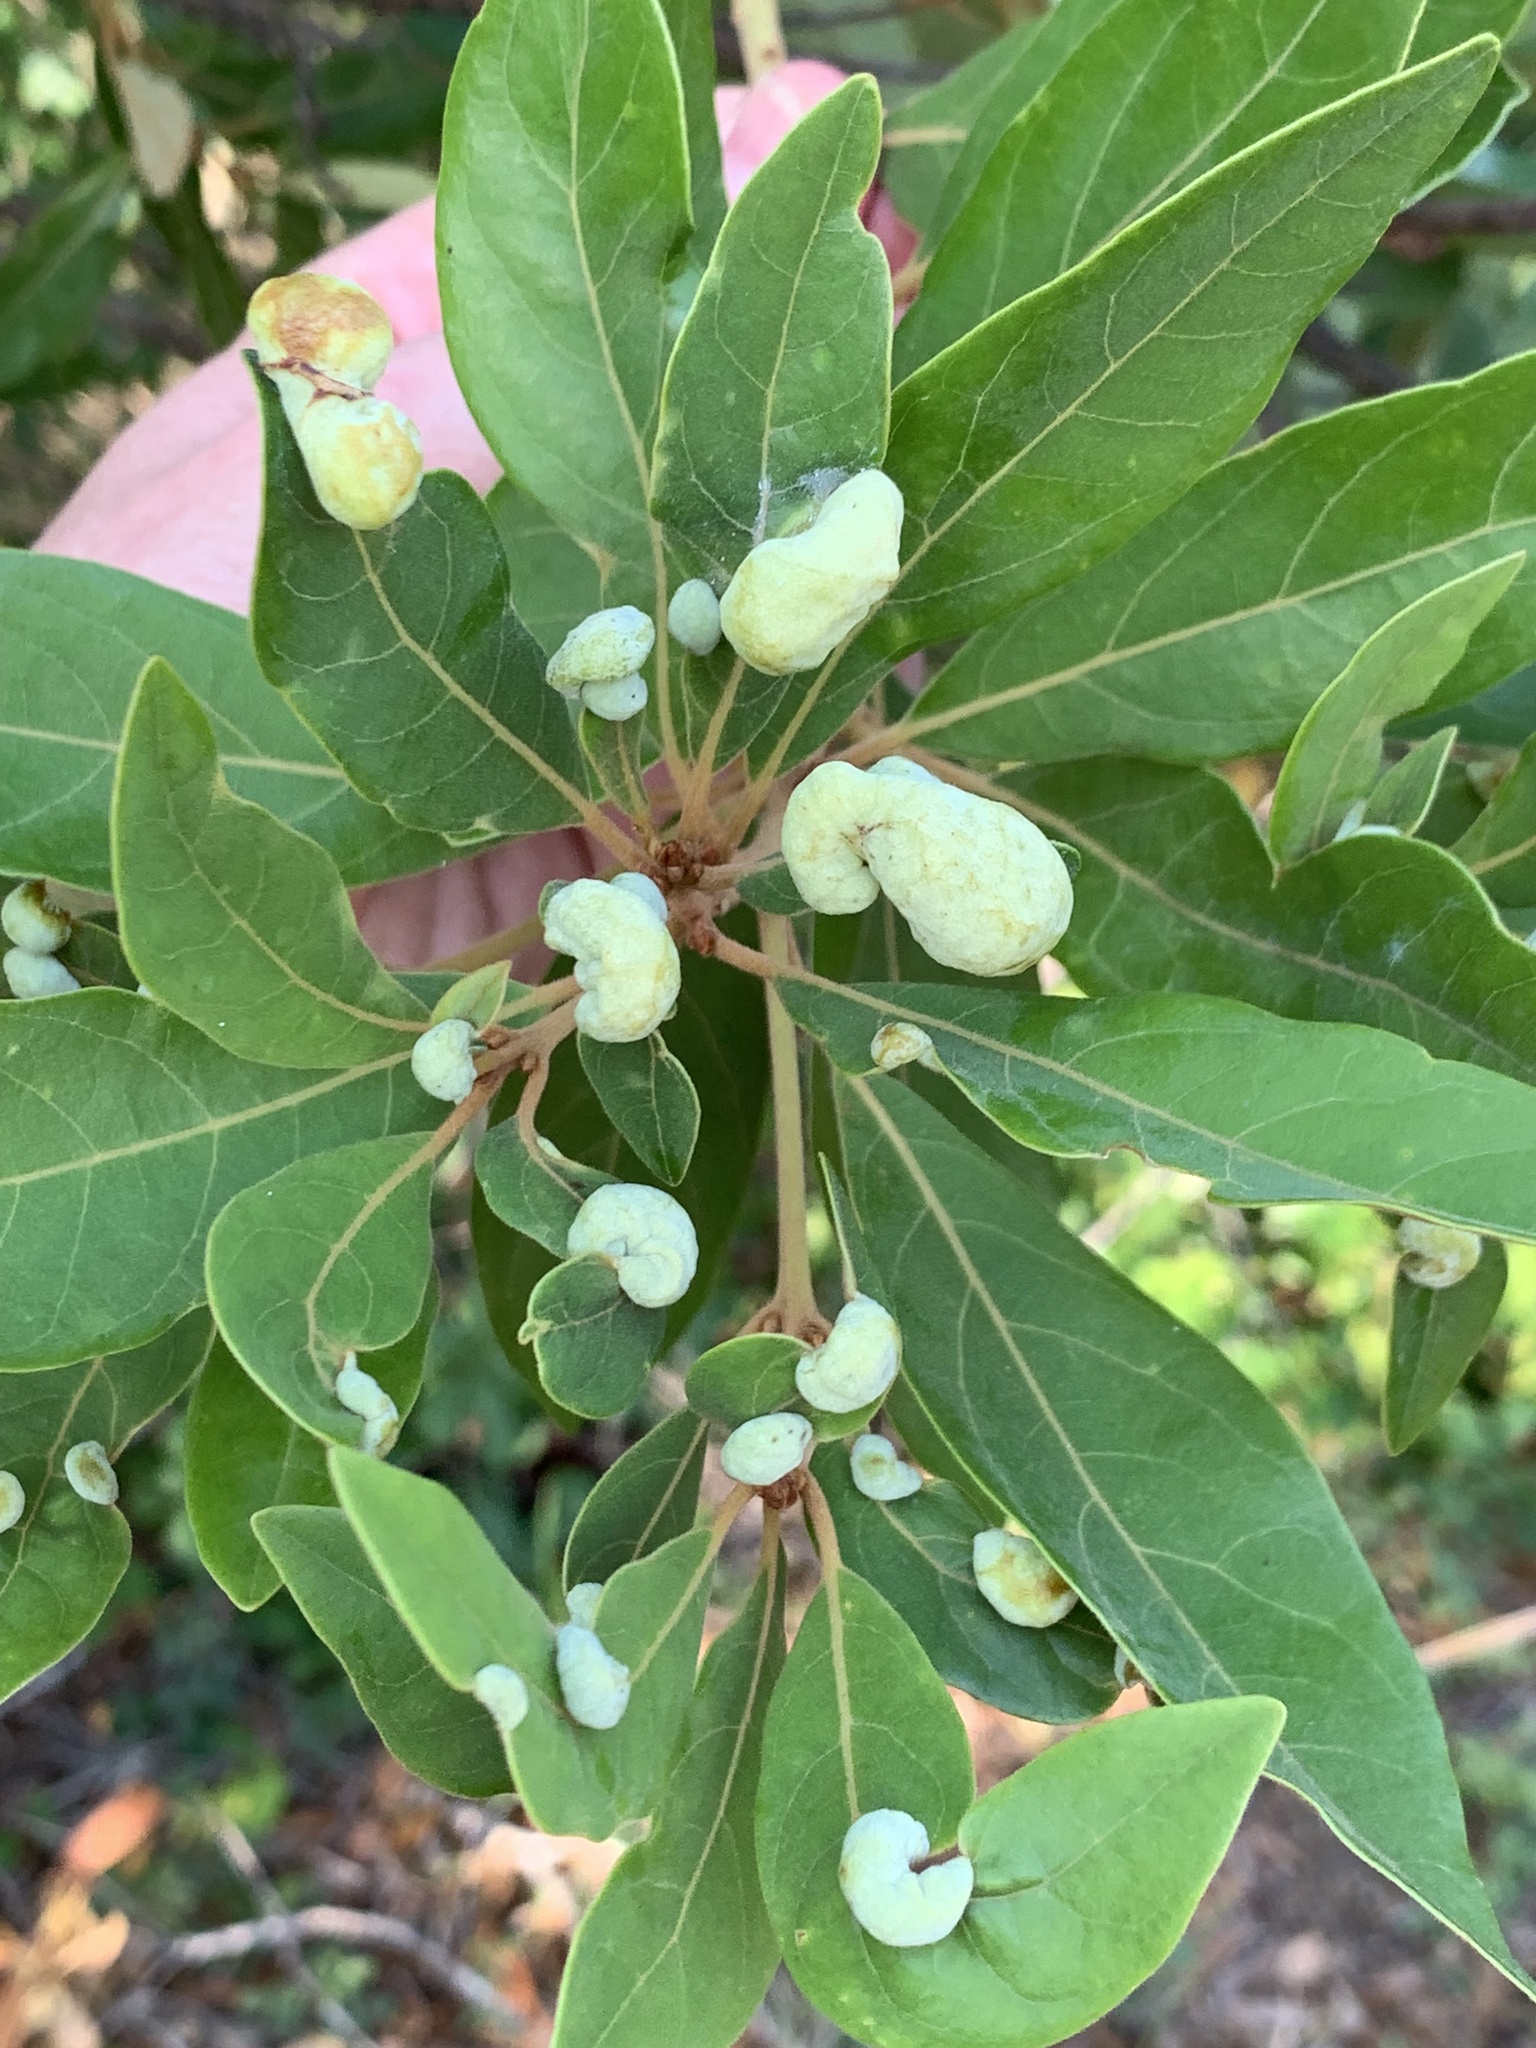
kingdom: Animalia
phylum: Arthropoda
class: Insecta
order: Hemiptera
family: Triozidae
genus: Trioza
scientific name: Trioza magnoliae
